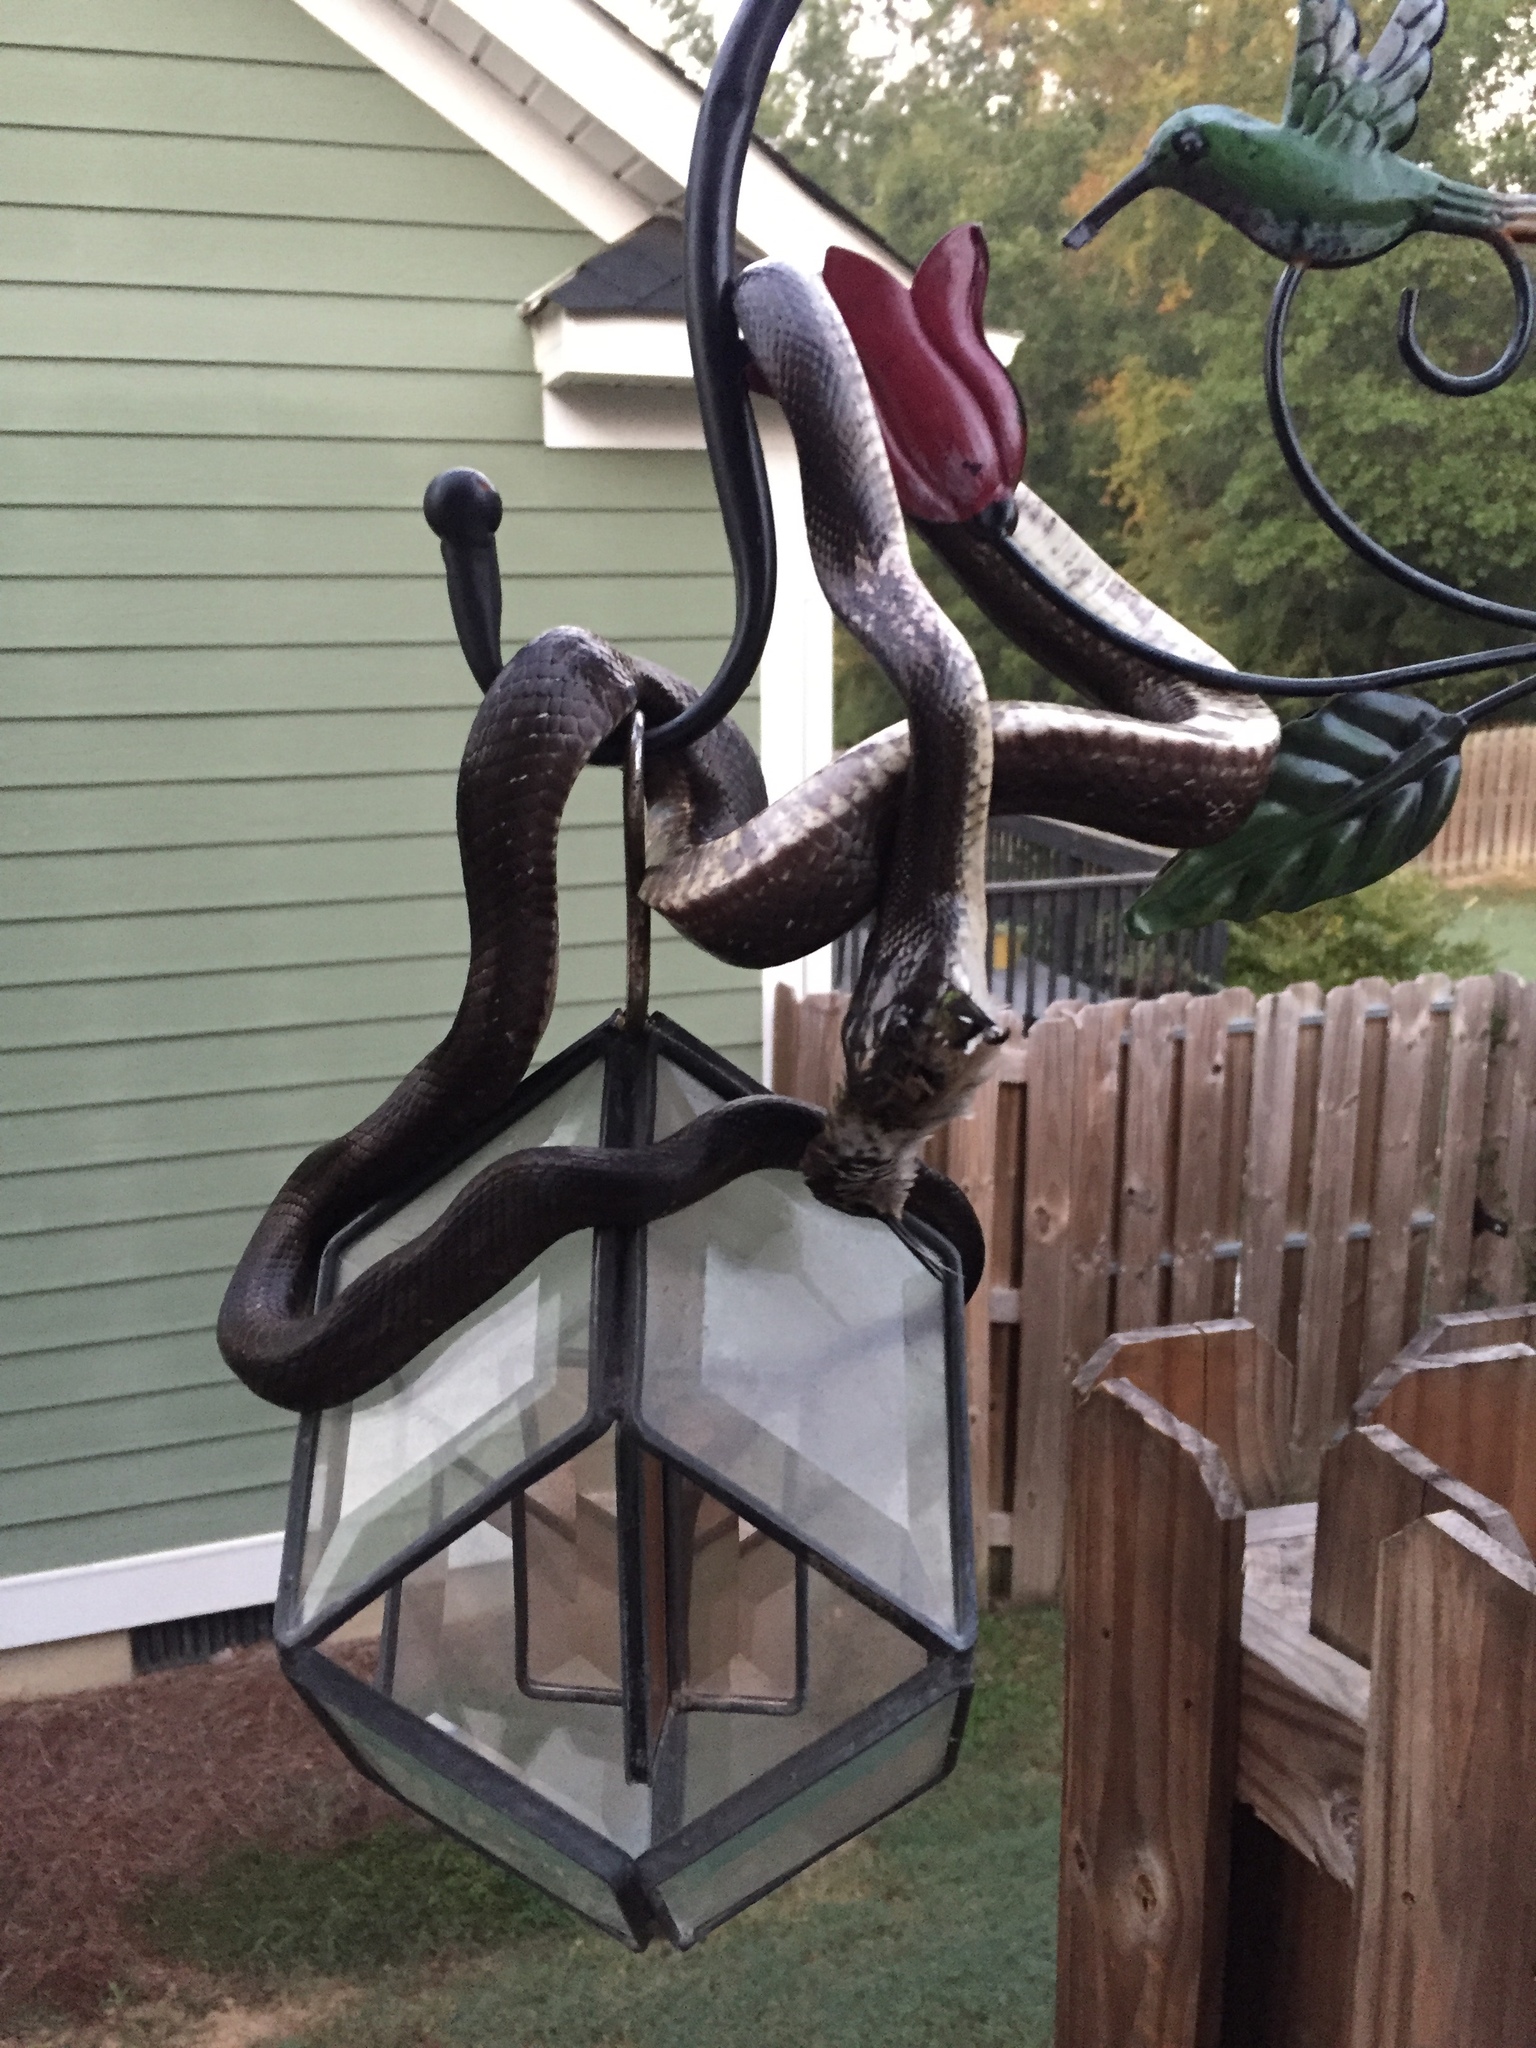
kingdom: Animalia
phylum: Chordata
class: Squamata
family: Colubridae
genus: Pantherophis
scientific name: Pantherophis alleghaniensis
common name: Eastern rat snake
